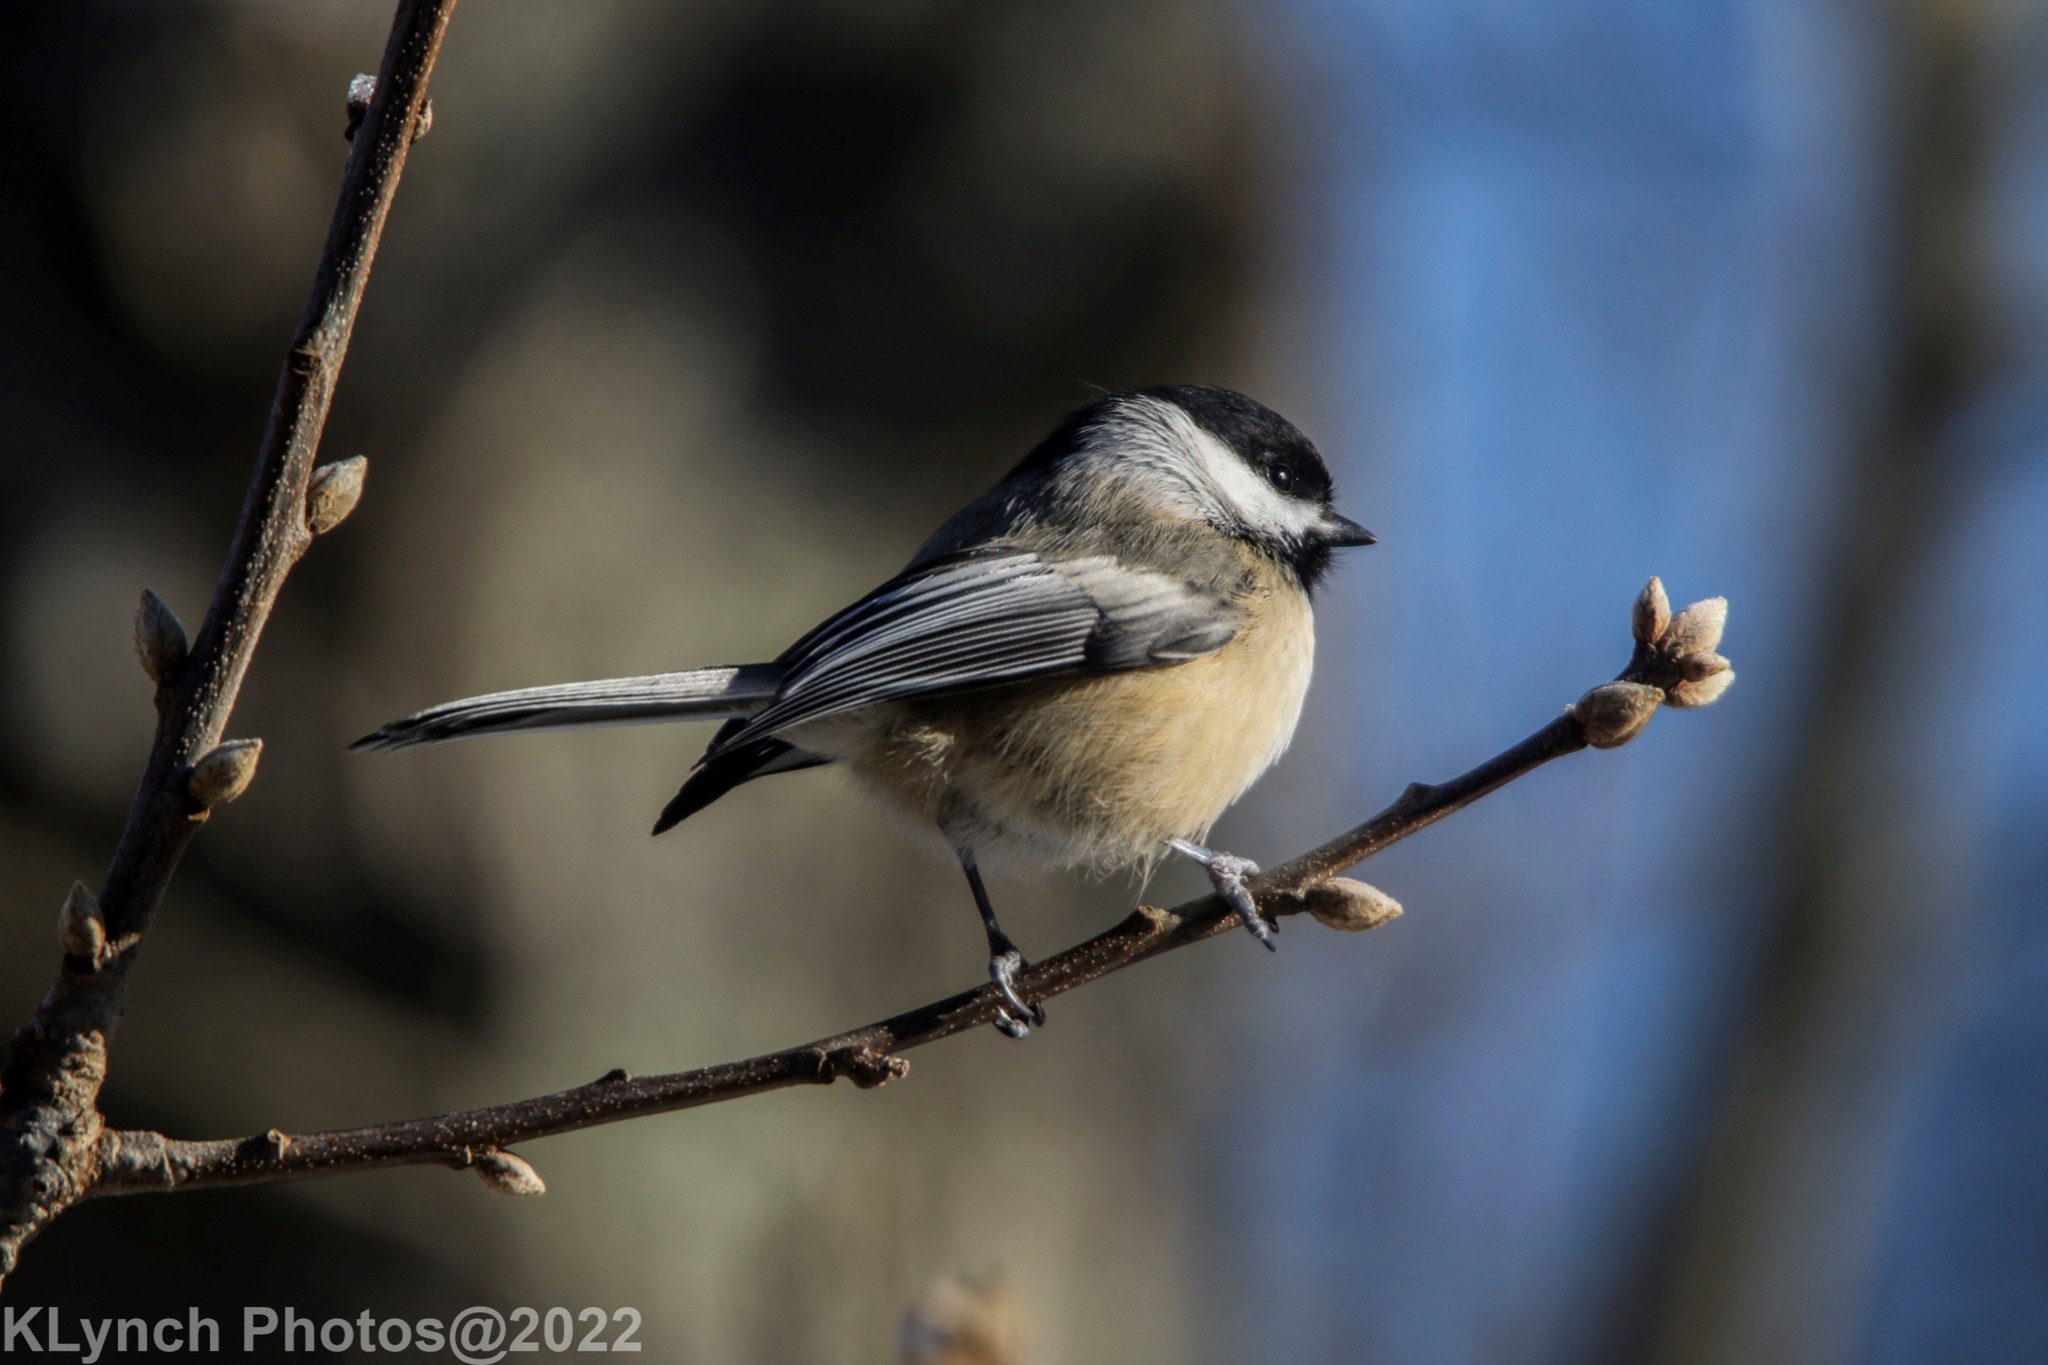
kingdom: Animalia
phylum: Chordata
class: Aves
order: Passeriformes
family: Paridae
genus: Poecile
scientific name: Poecile atricapillus
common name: Black-capped chickadee
